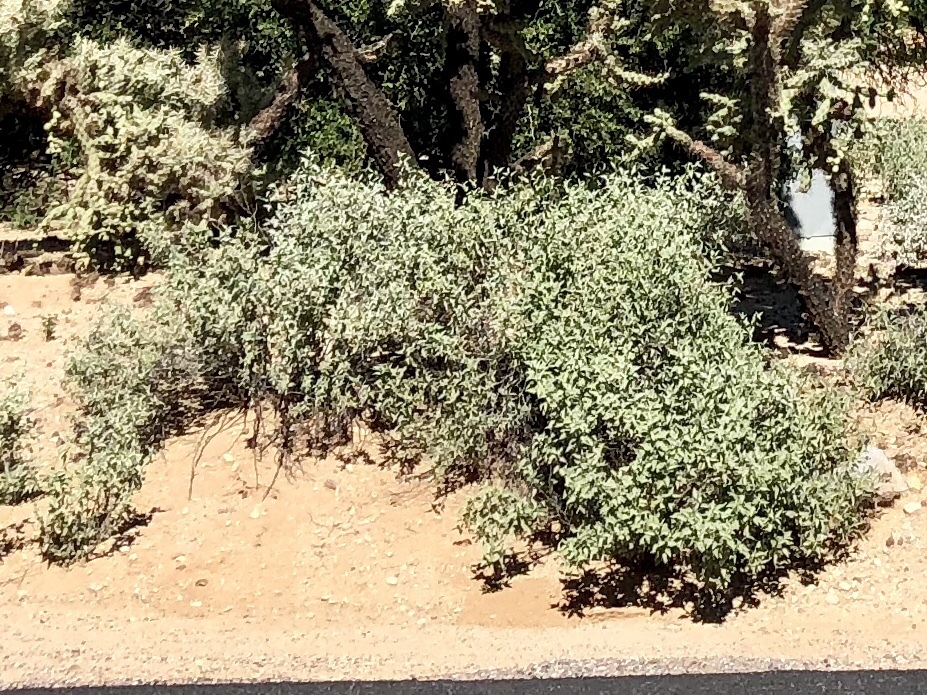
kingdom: Plantae
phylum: Tracheophyta
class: Magnoliopsida
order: Asterales
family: Asteraceae
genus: Ambrosia
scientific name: Ambrosia deltoidea
